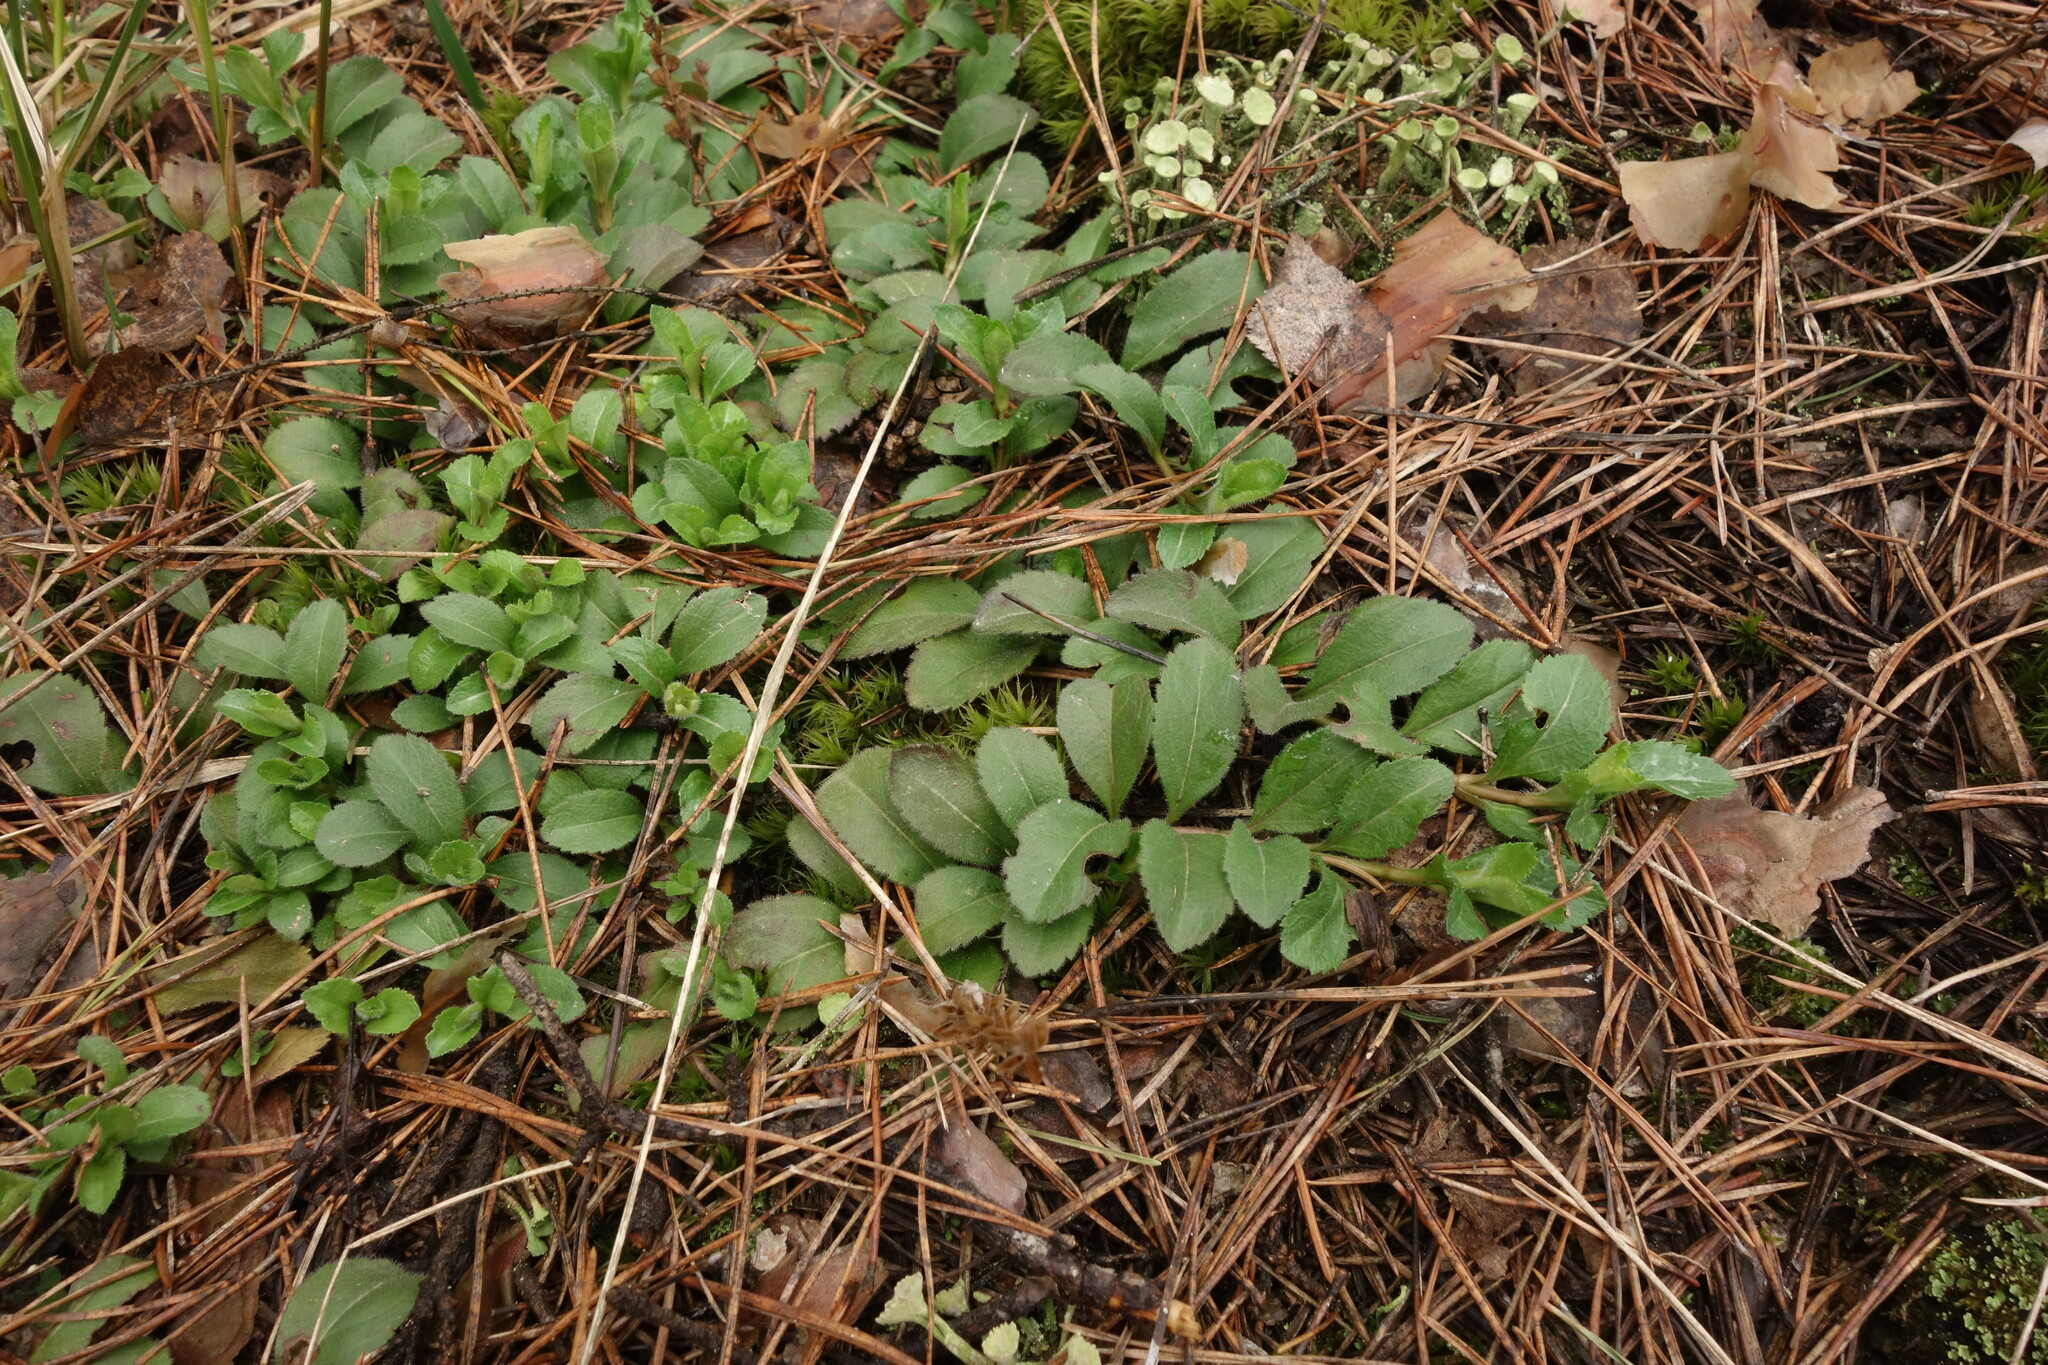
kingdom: Plantae
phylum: Tracheophyta
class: Magnoliopsida
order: Lamiales
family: Plantaginaceae
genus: Veronica
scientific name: Veronica officinalis
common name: Common speedwell
